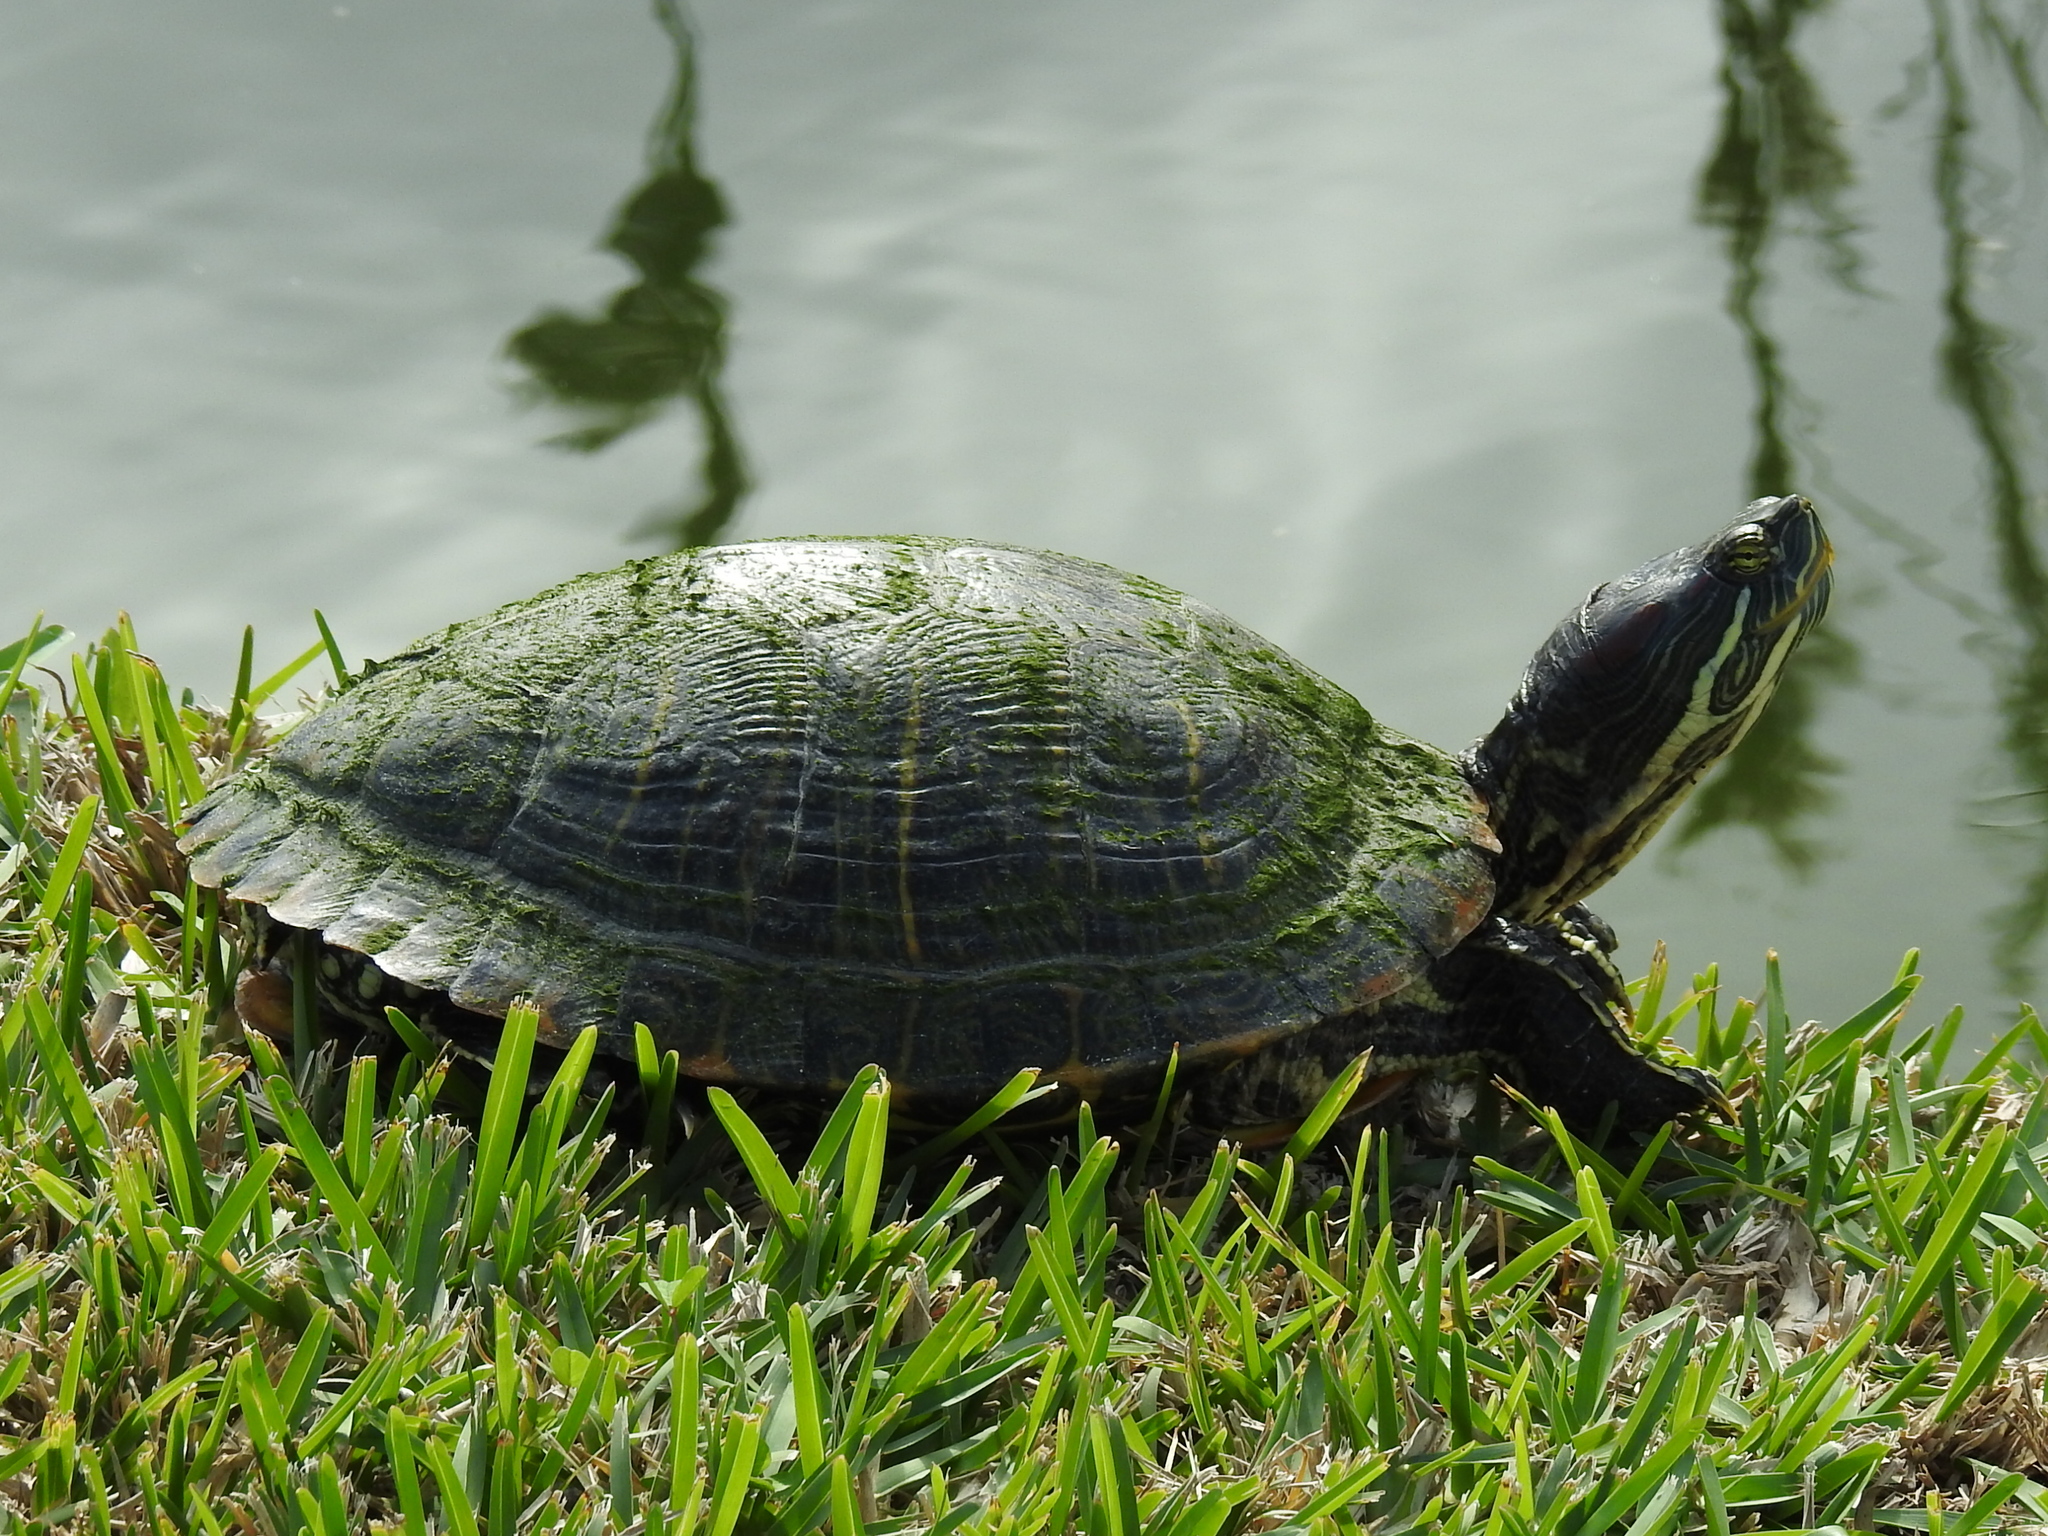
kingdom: Animalia
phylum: Chordata
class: Testudines
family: Emydidae
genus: Trachemys
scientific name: Trachemys scripta
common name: Slider
